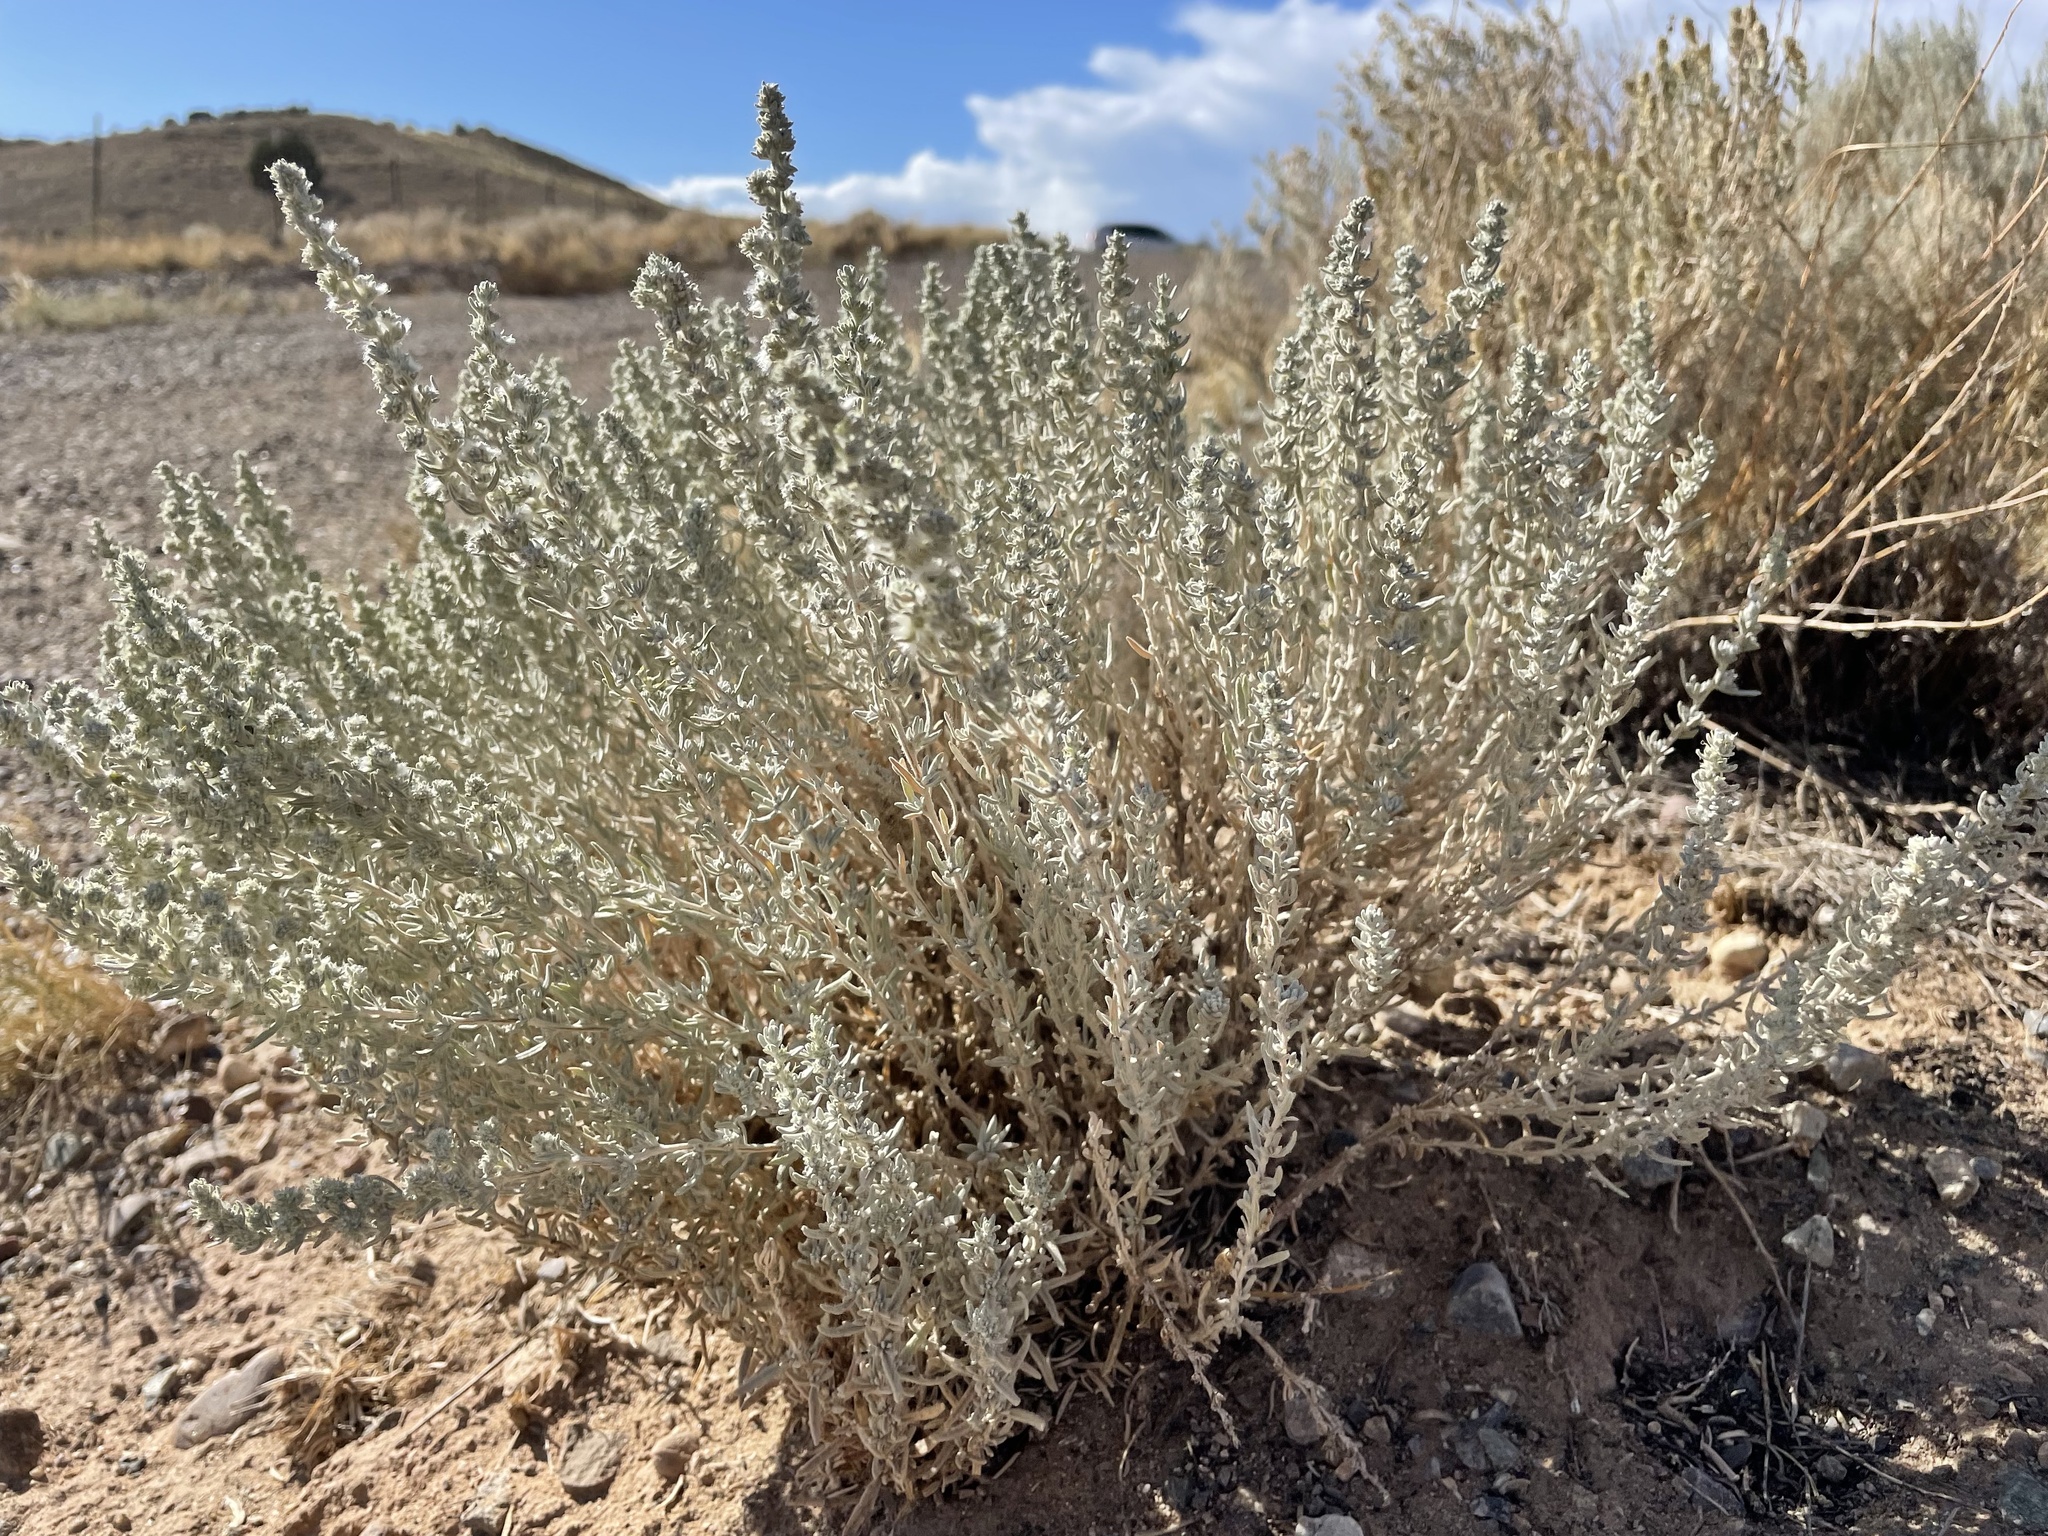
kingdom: Plantae
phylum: Tracheophyta
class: Magnoliopsida
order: Caryophyllales
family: Amaranthaceae
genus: Krascheninnikovia
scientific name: Krascheninnikovia lanata
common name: Winterfat
